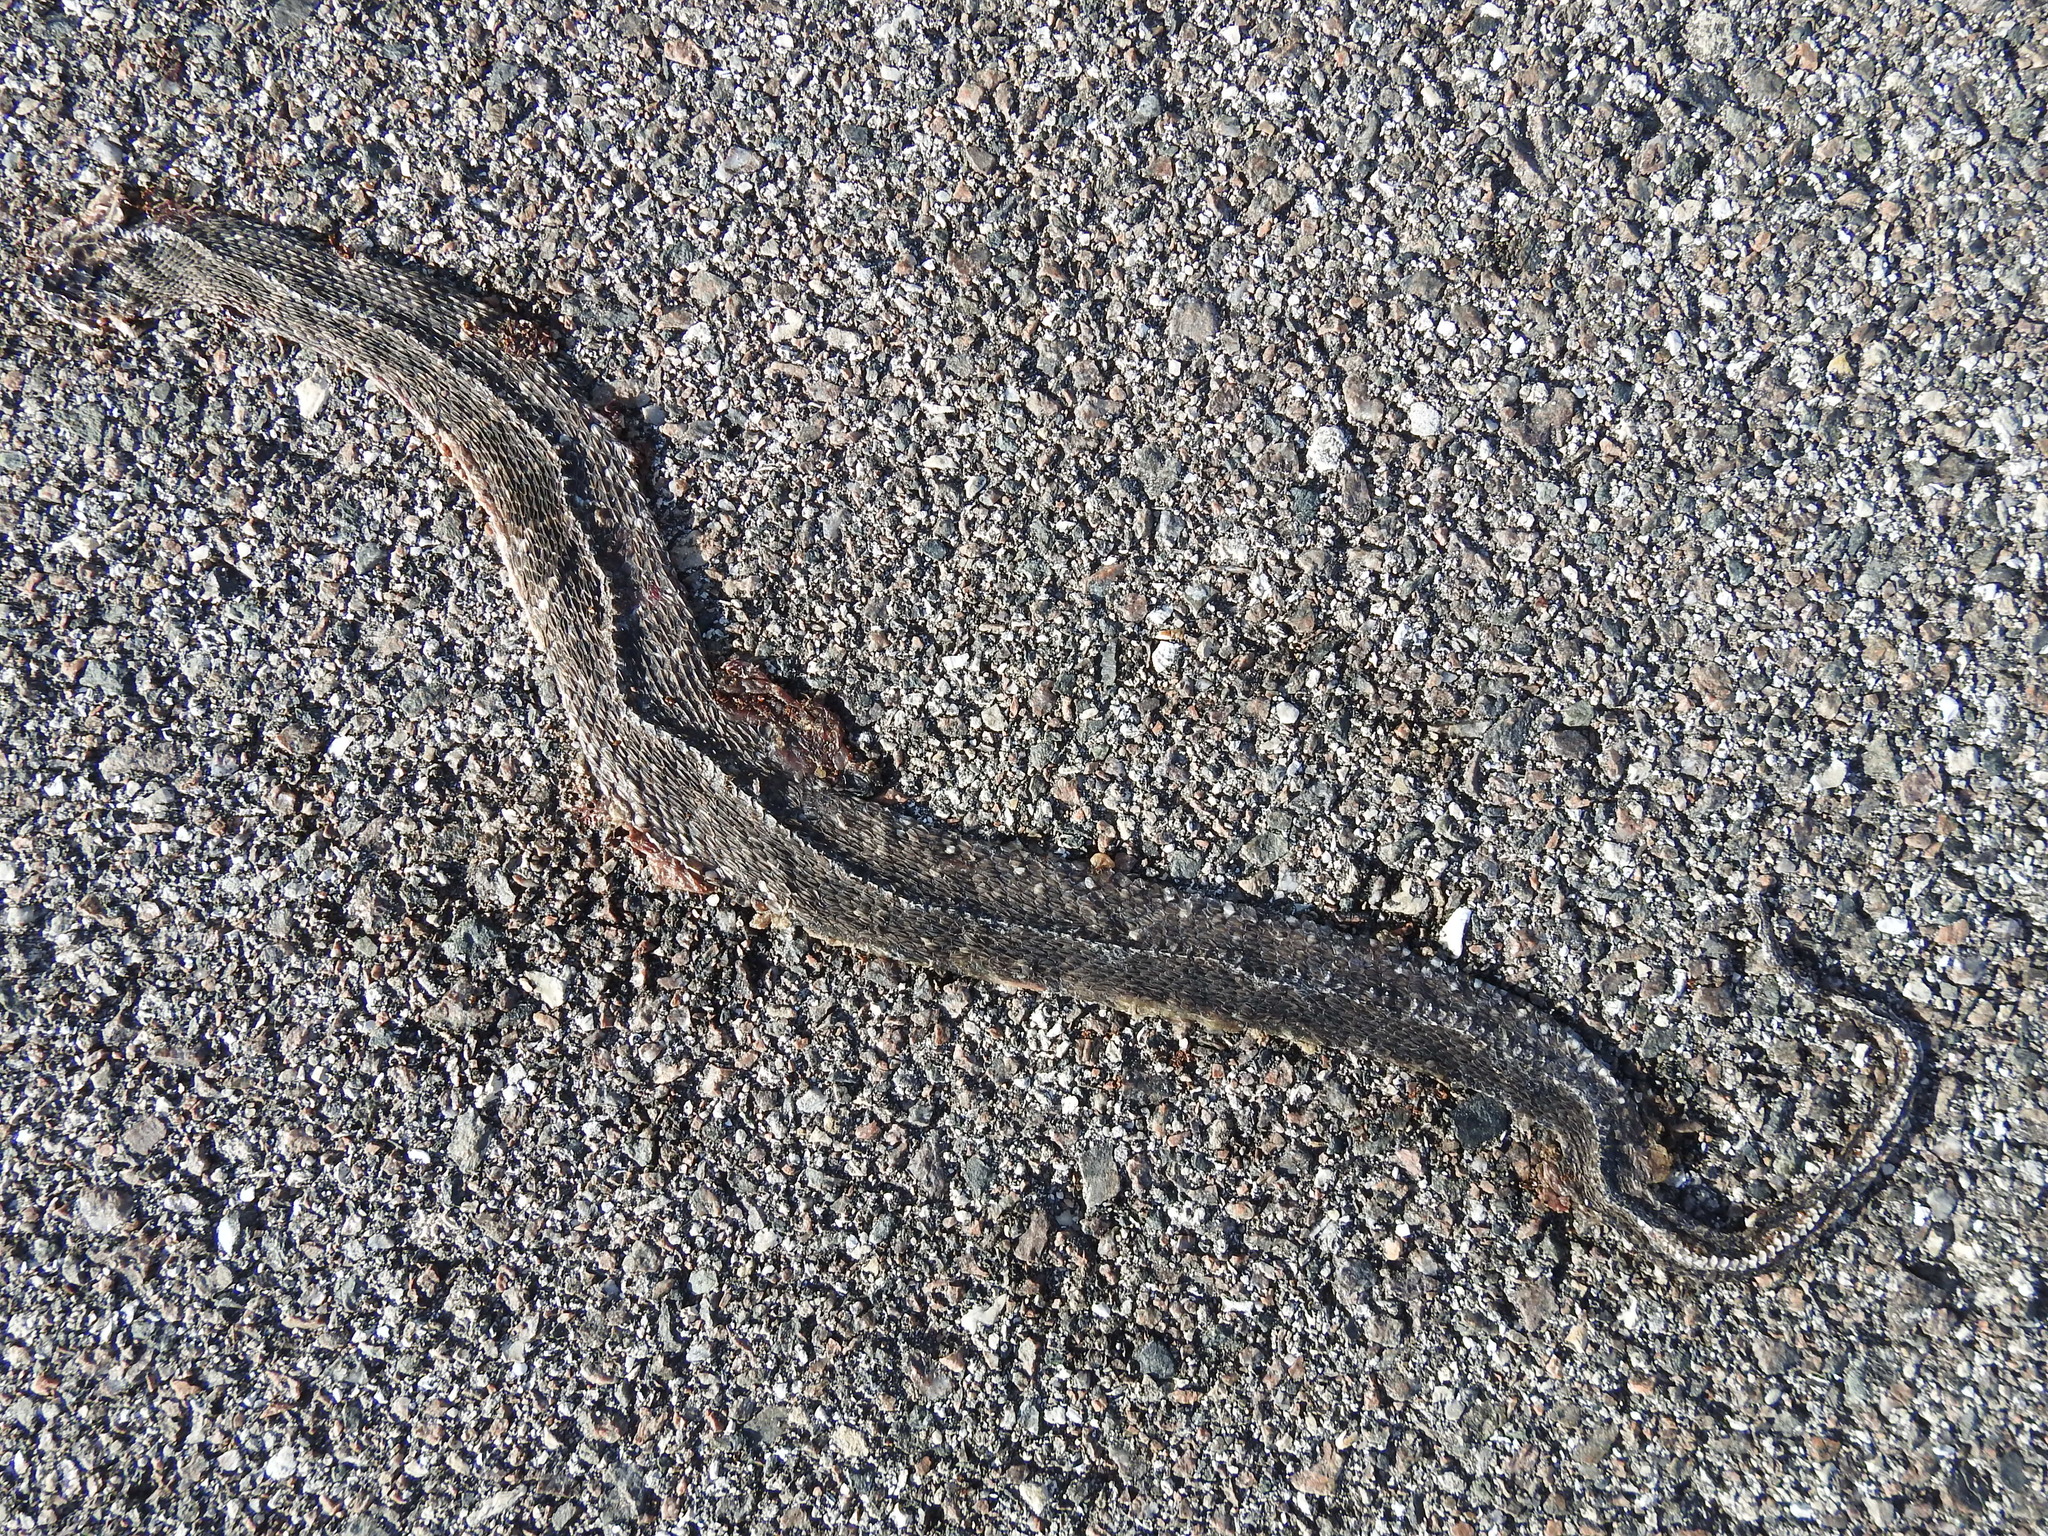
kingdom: Animalia
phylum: Chordata
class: Squamata
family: Colubridae
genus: Nerodia
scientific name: Nerodia fasciata
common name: Southern water snake
